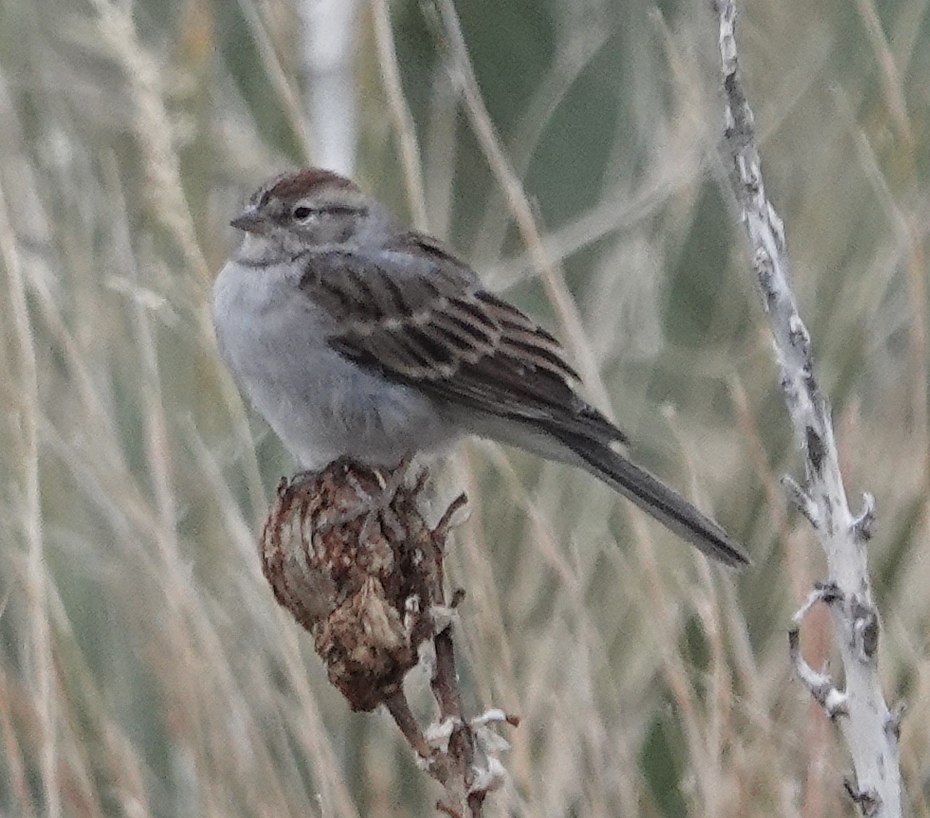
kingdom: Animalia
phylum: Chordata
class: Aves
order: Passeriformes
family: Passerellidae
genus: Spizella
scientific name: Spizella passerina
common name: Chipping sparrow
